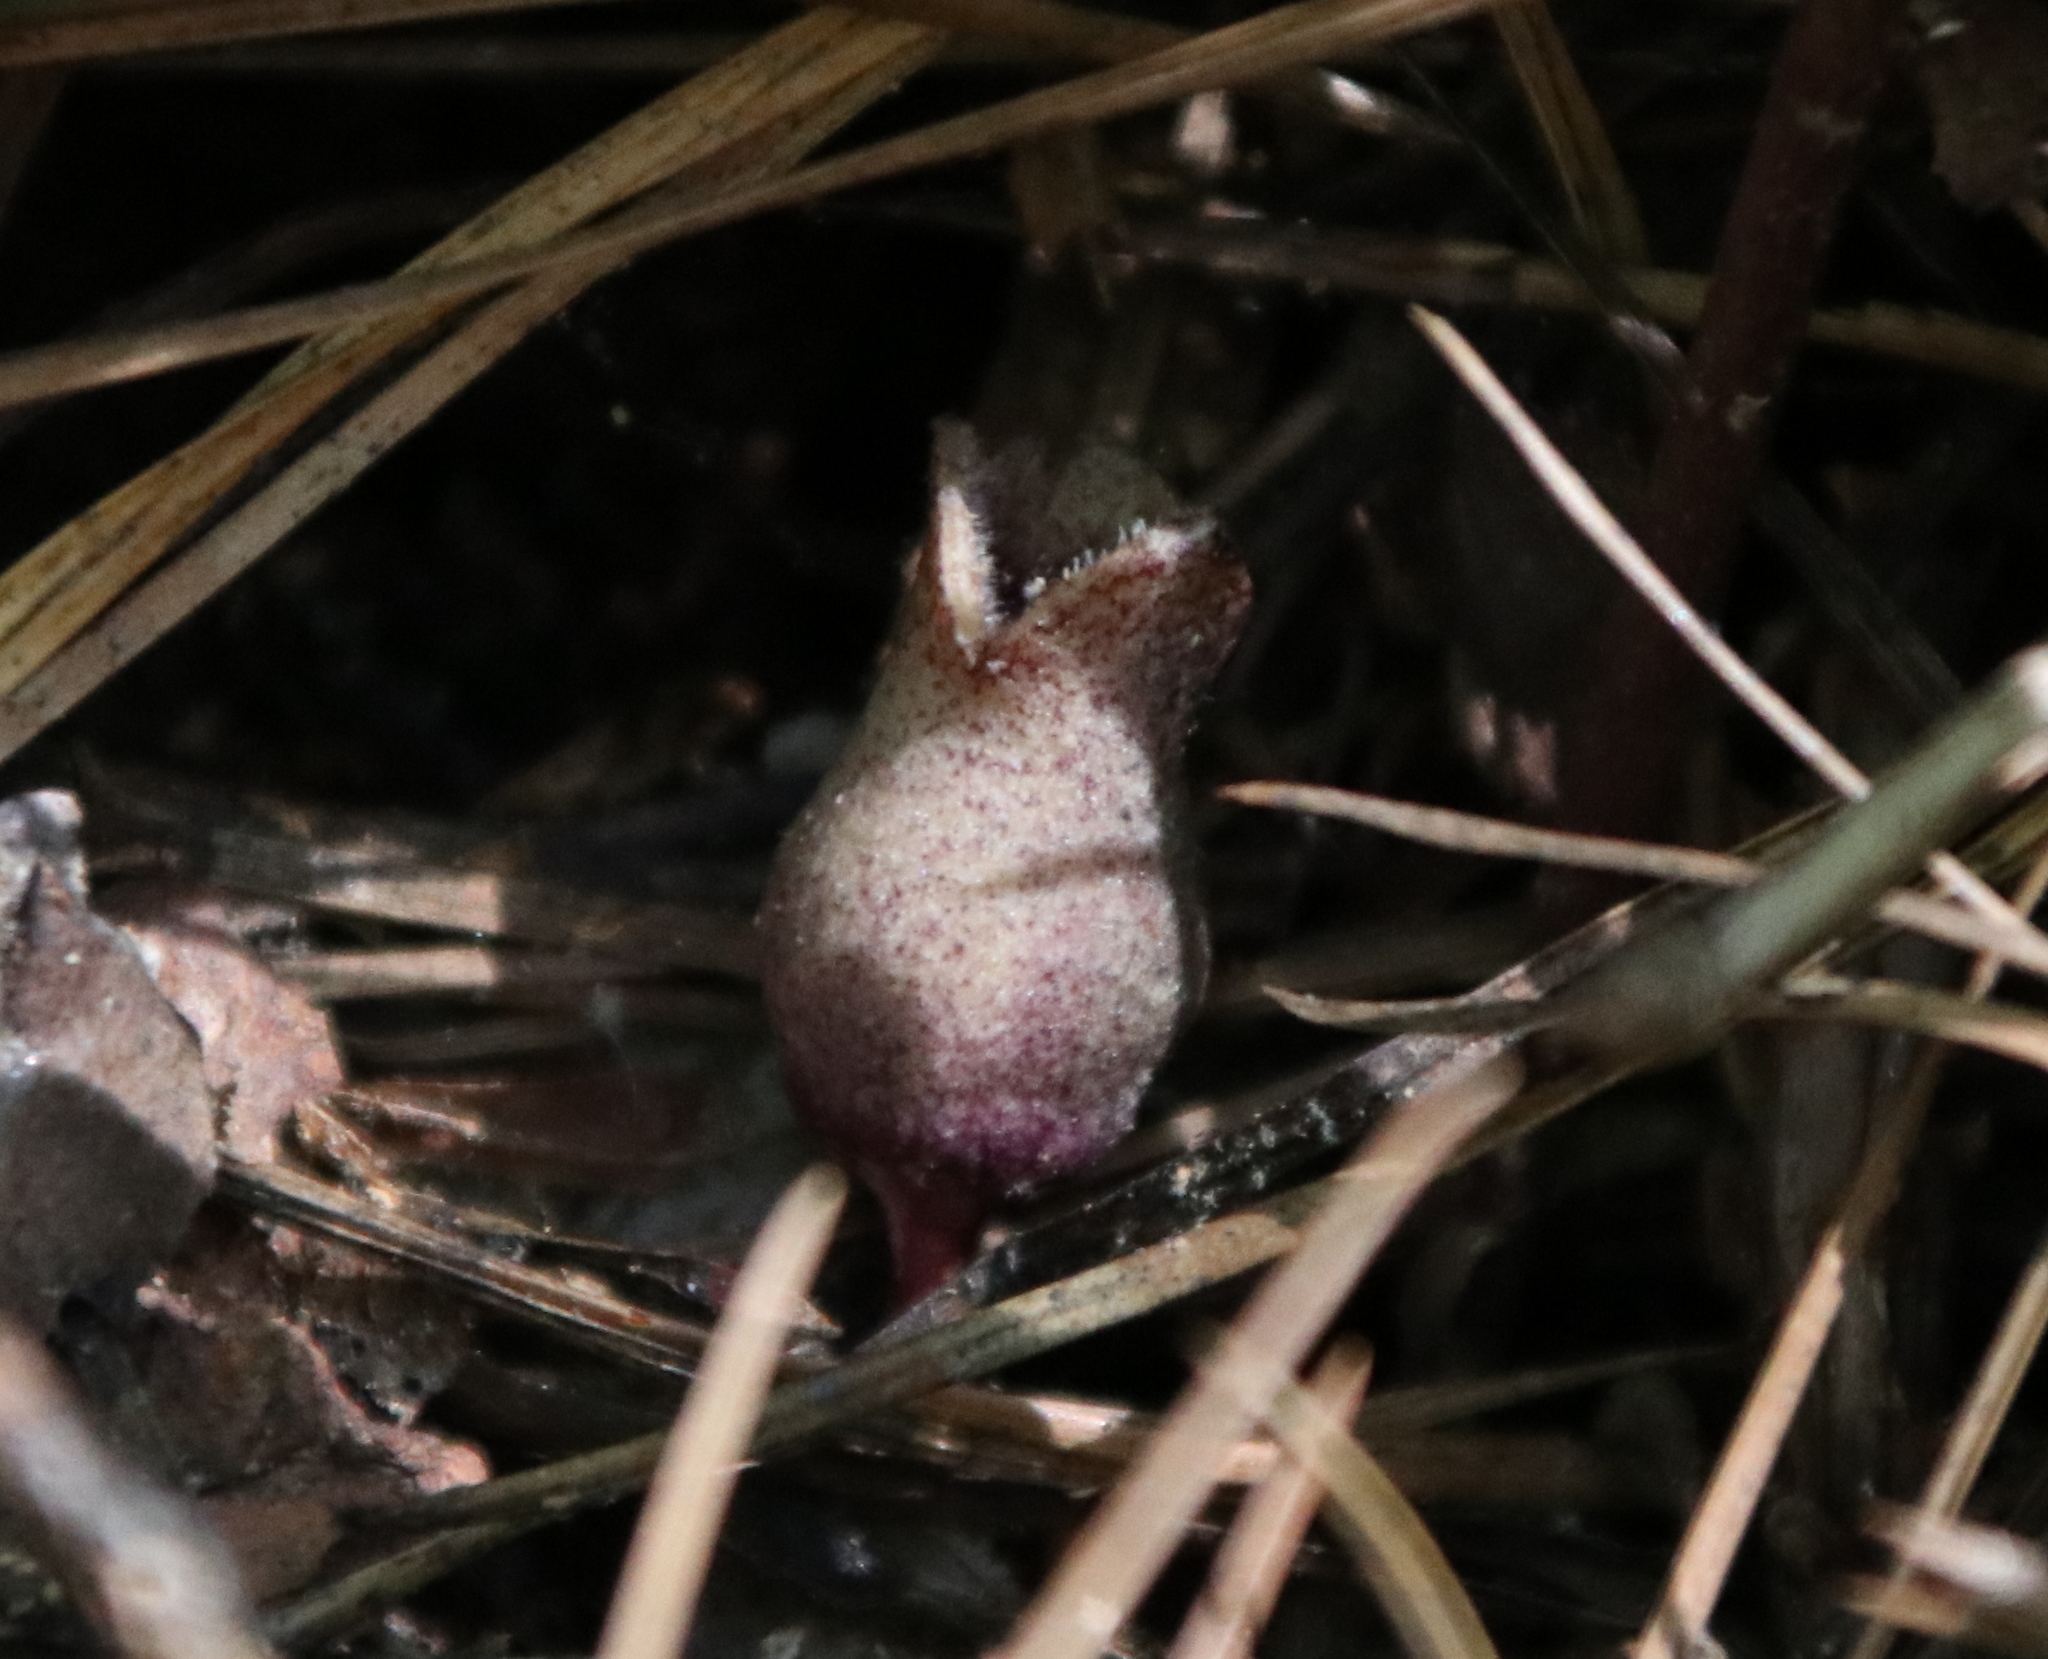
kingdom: Plantae
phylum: Tracheophyta
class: Magnoliopsida
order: Piperales
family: Aristolochiaceae
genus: Hexastylis
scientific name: Hexastylis arifolia
